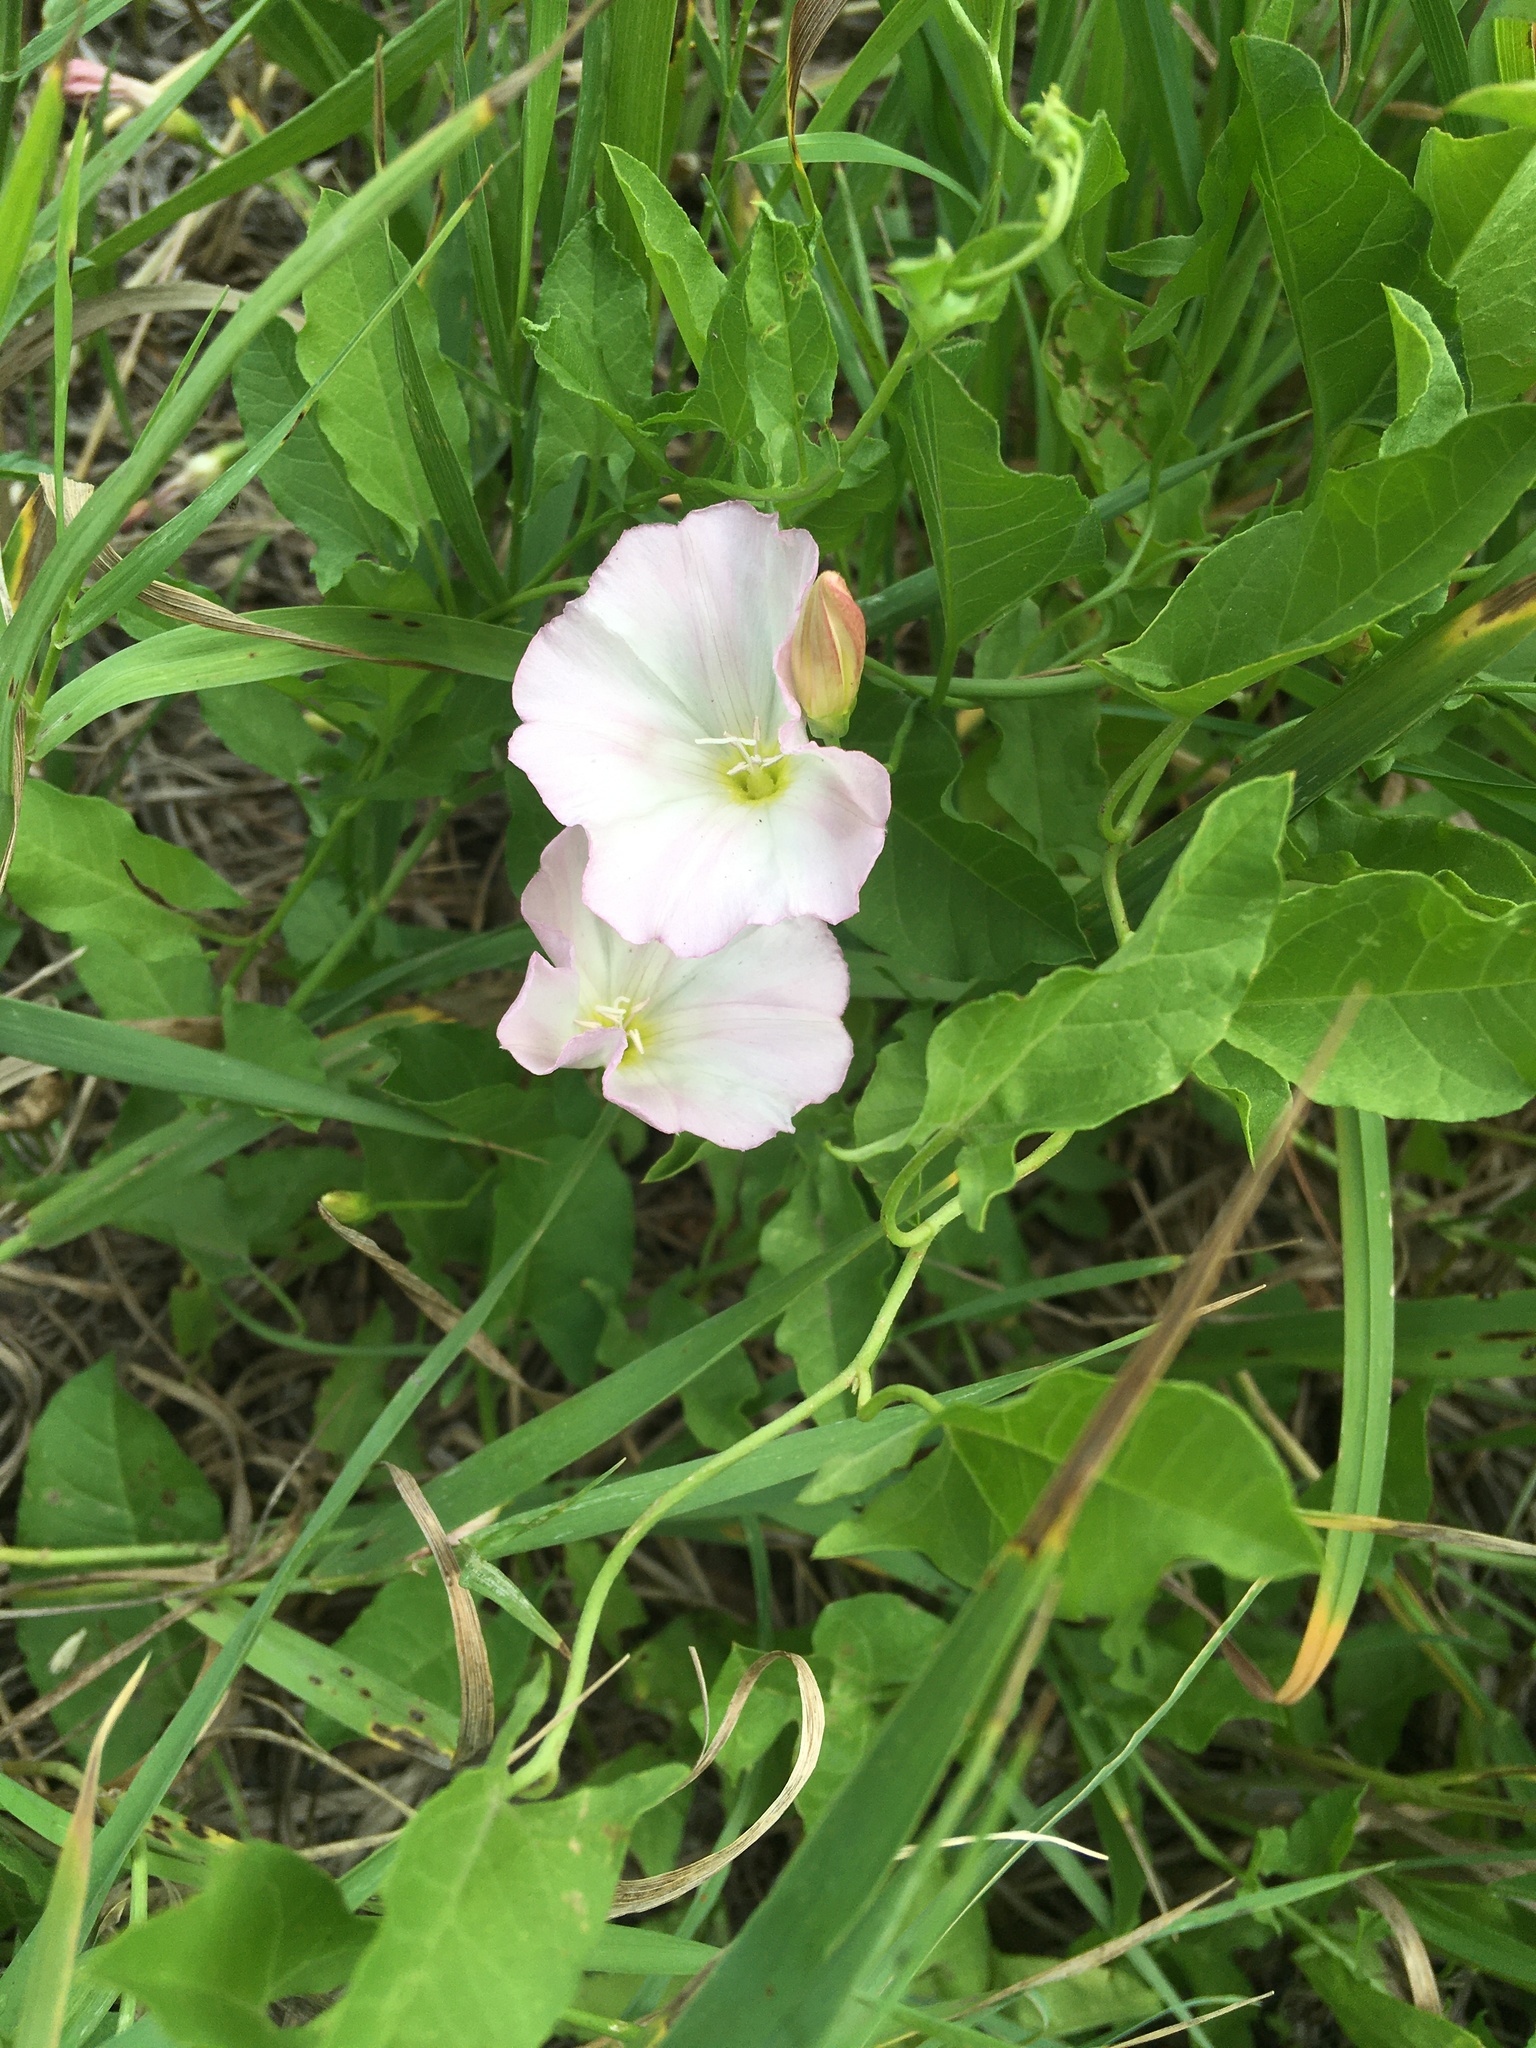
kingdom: Plantae
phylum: Tracheophyta
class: Magnoliopsida
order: Solanales
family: Convolvulaceae
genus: Convolvulus
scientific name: Convolvulus arvensis
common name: Field bindweed
